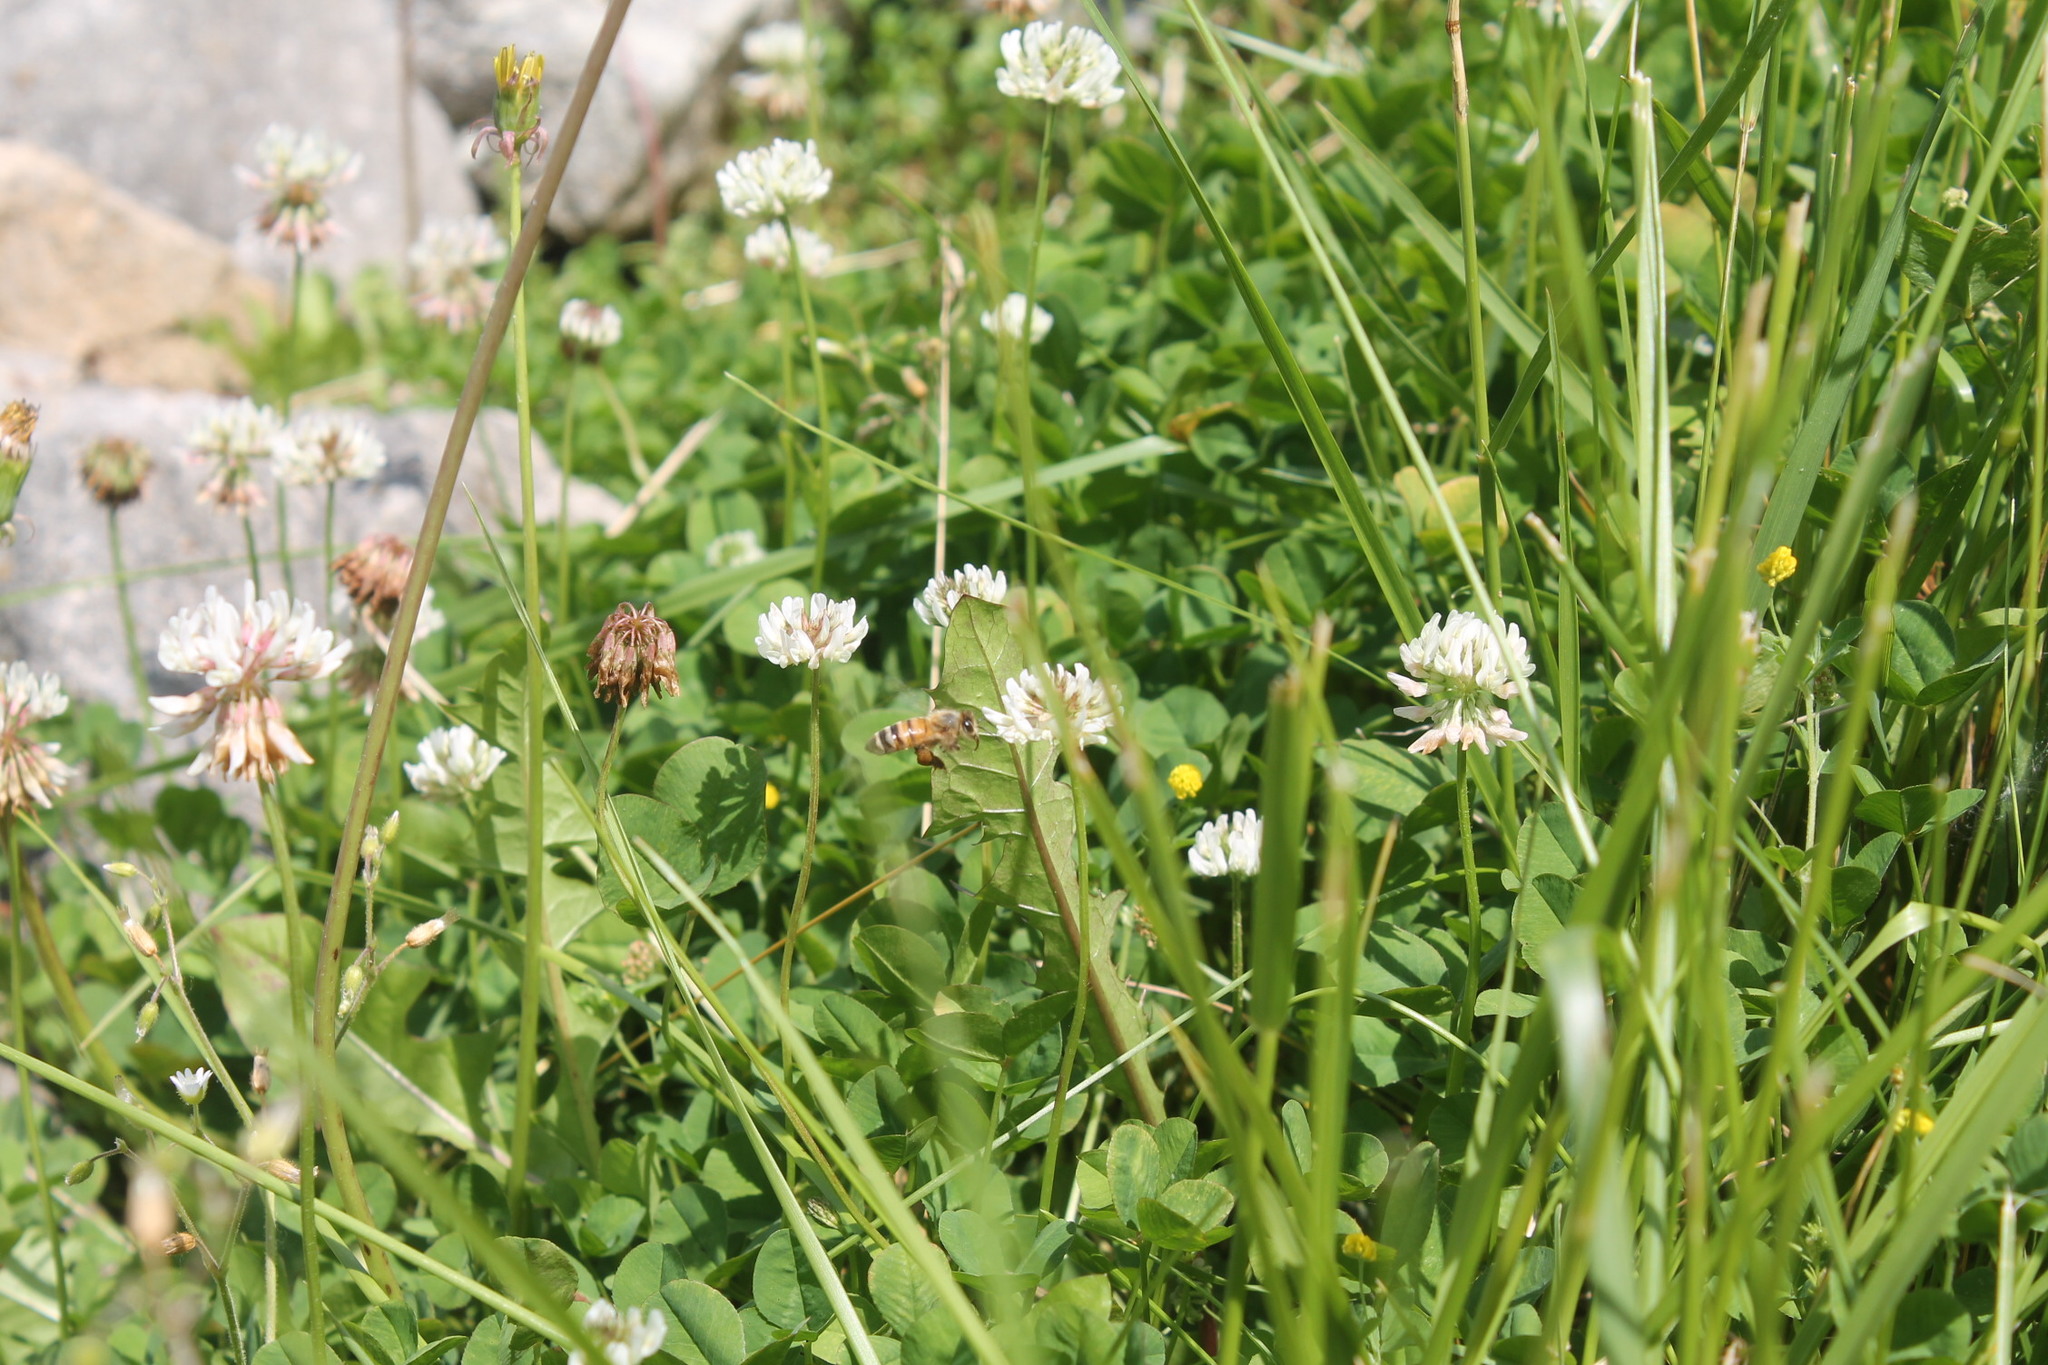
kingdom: Animalia
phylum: Arthropoda
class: Insecta
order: Hymenoptera
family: Apidae
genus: Apis
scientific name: Apis mellifera
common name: Honey bee
